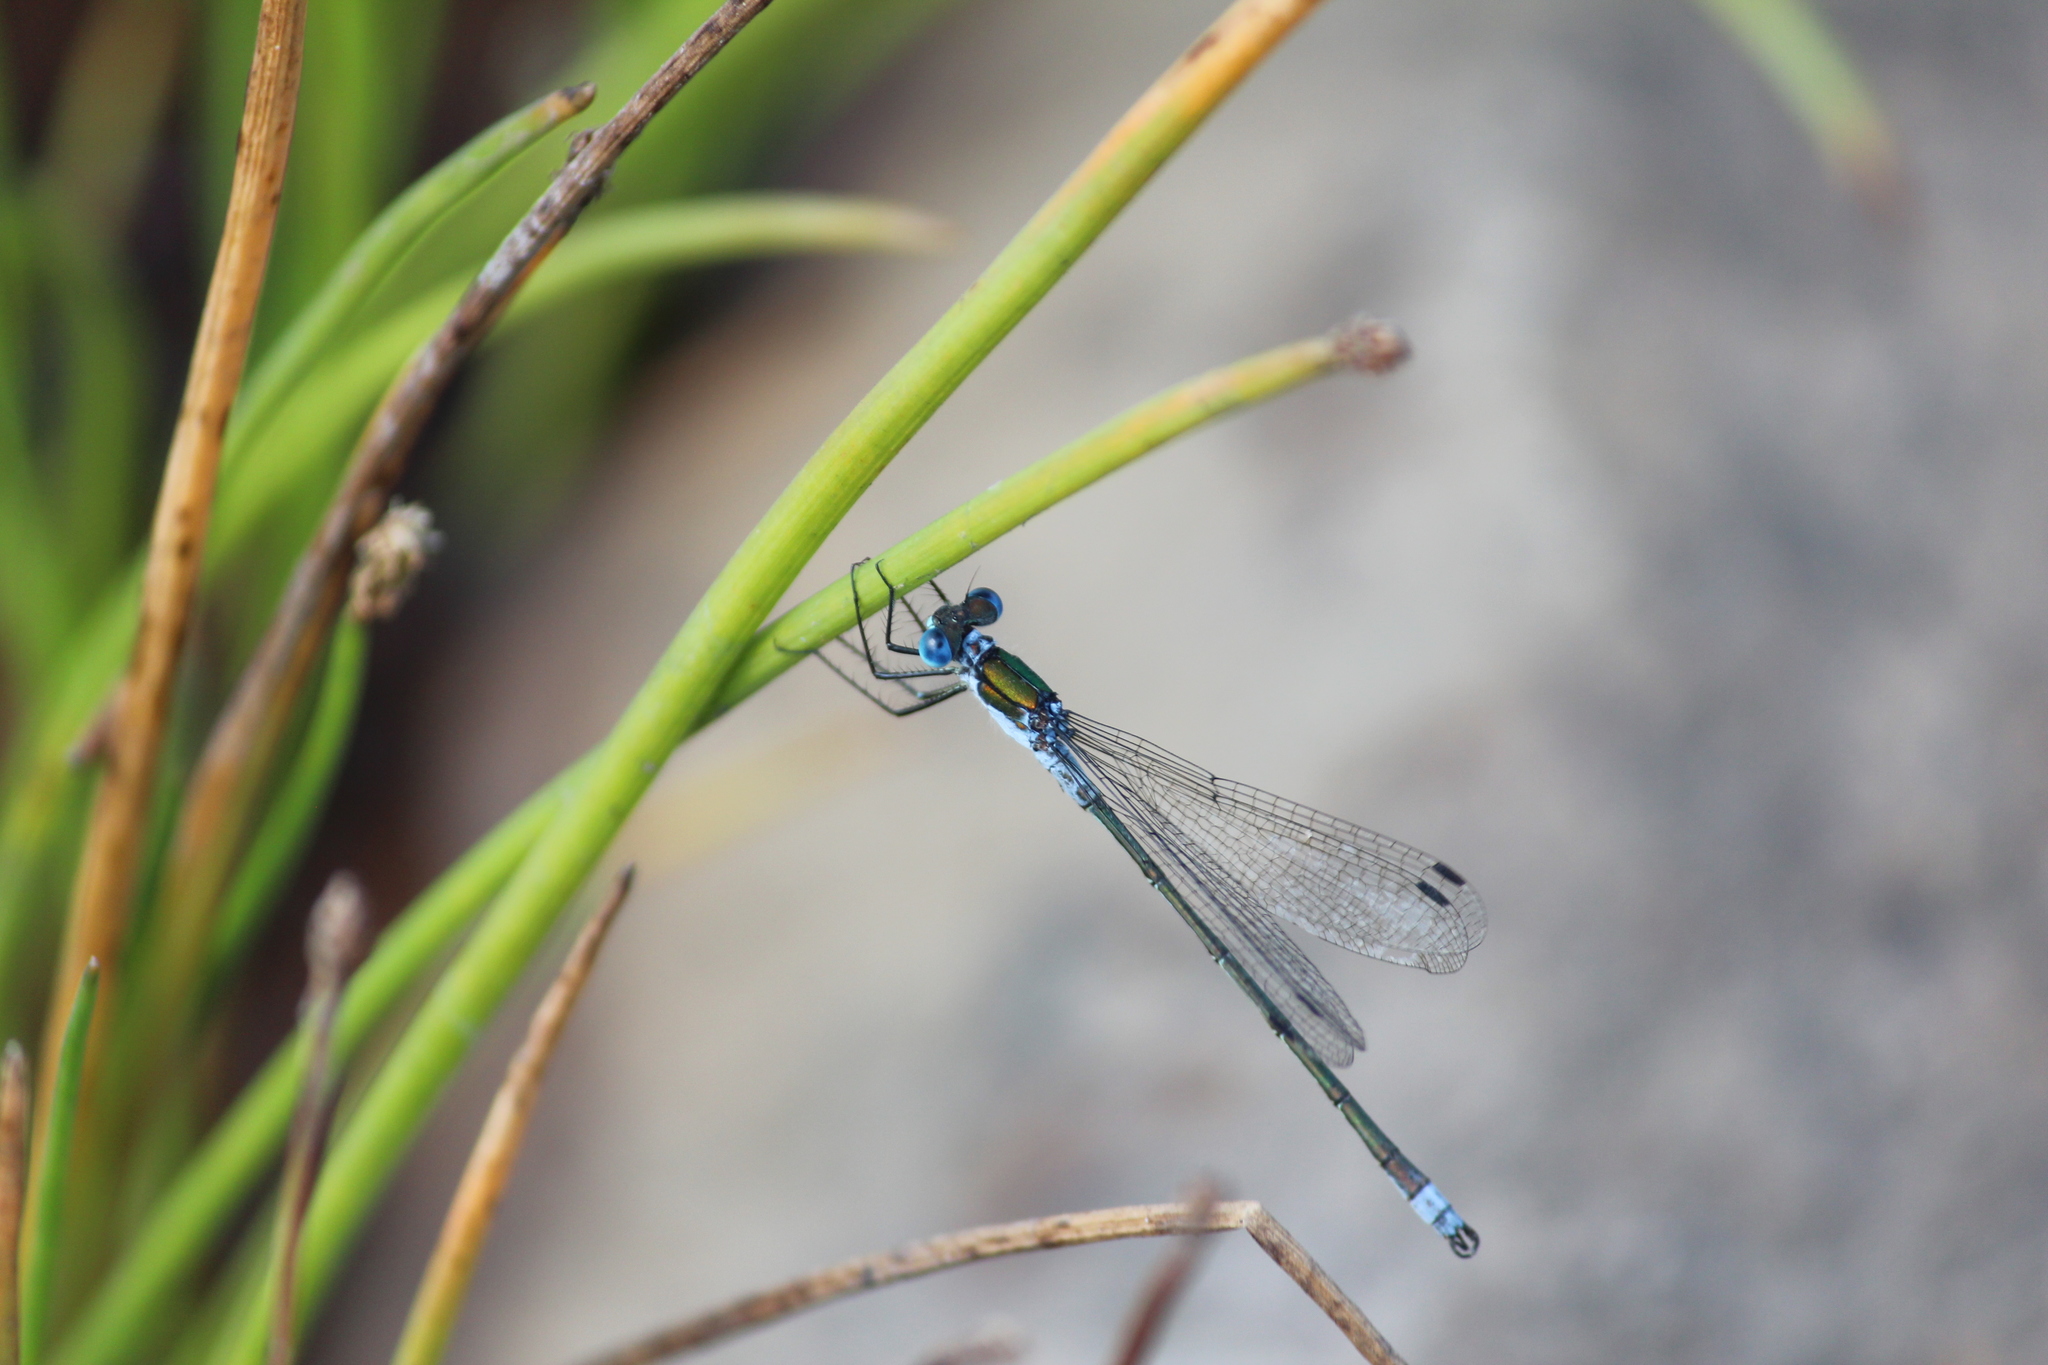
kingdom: Animalia
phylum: Arthropoda
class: Insecta
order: Odonata
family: Lestidae
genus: Lestes
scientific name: Lestes sponsa
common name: Common spreadwing
